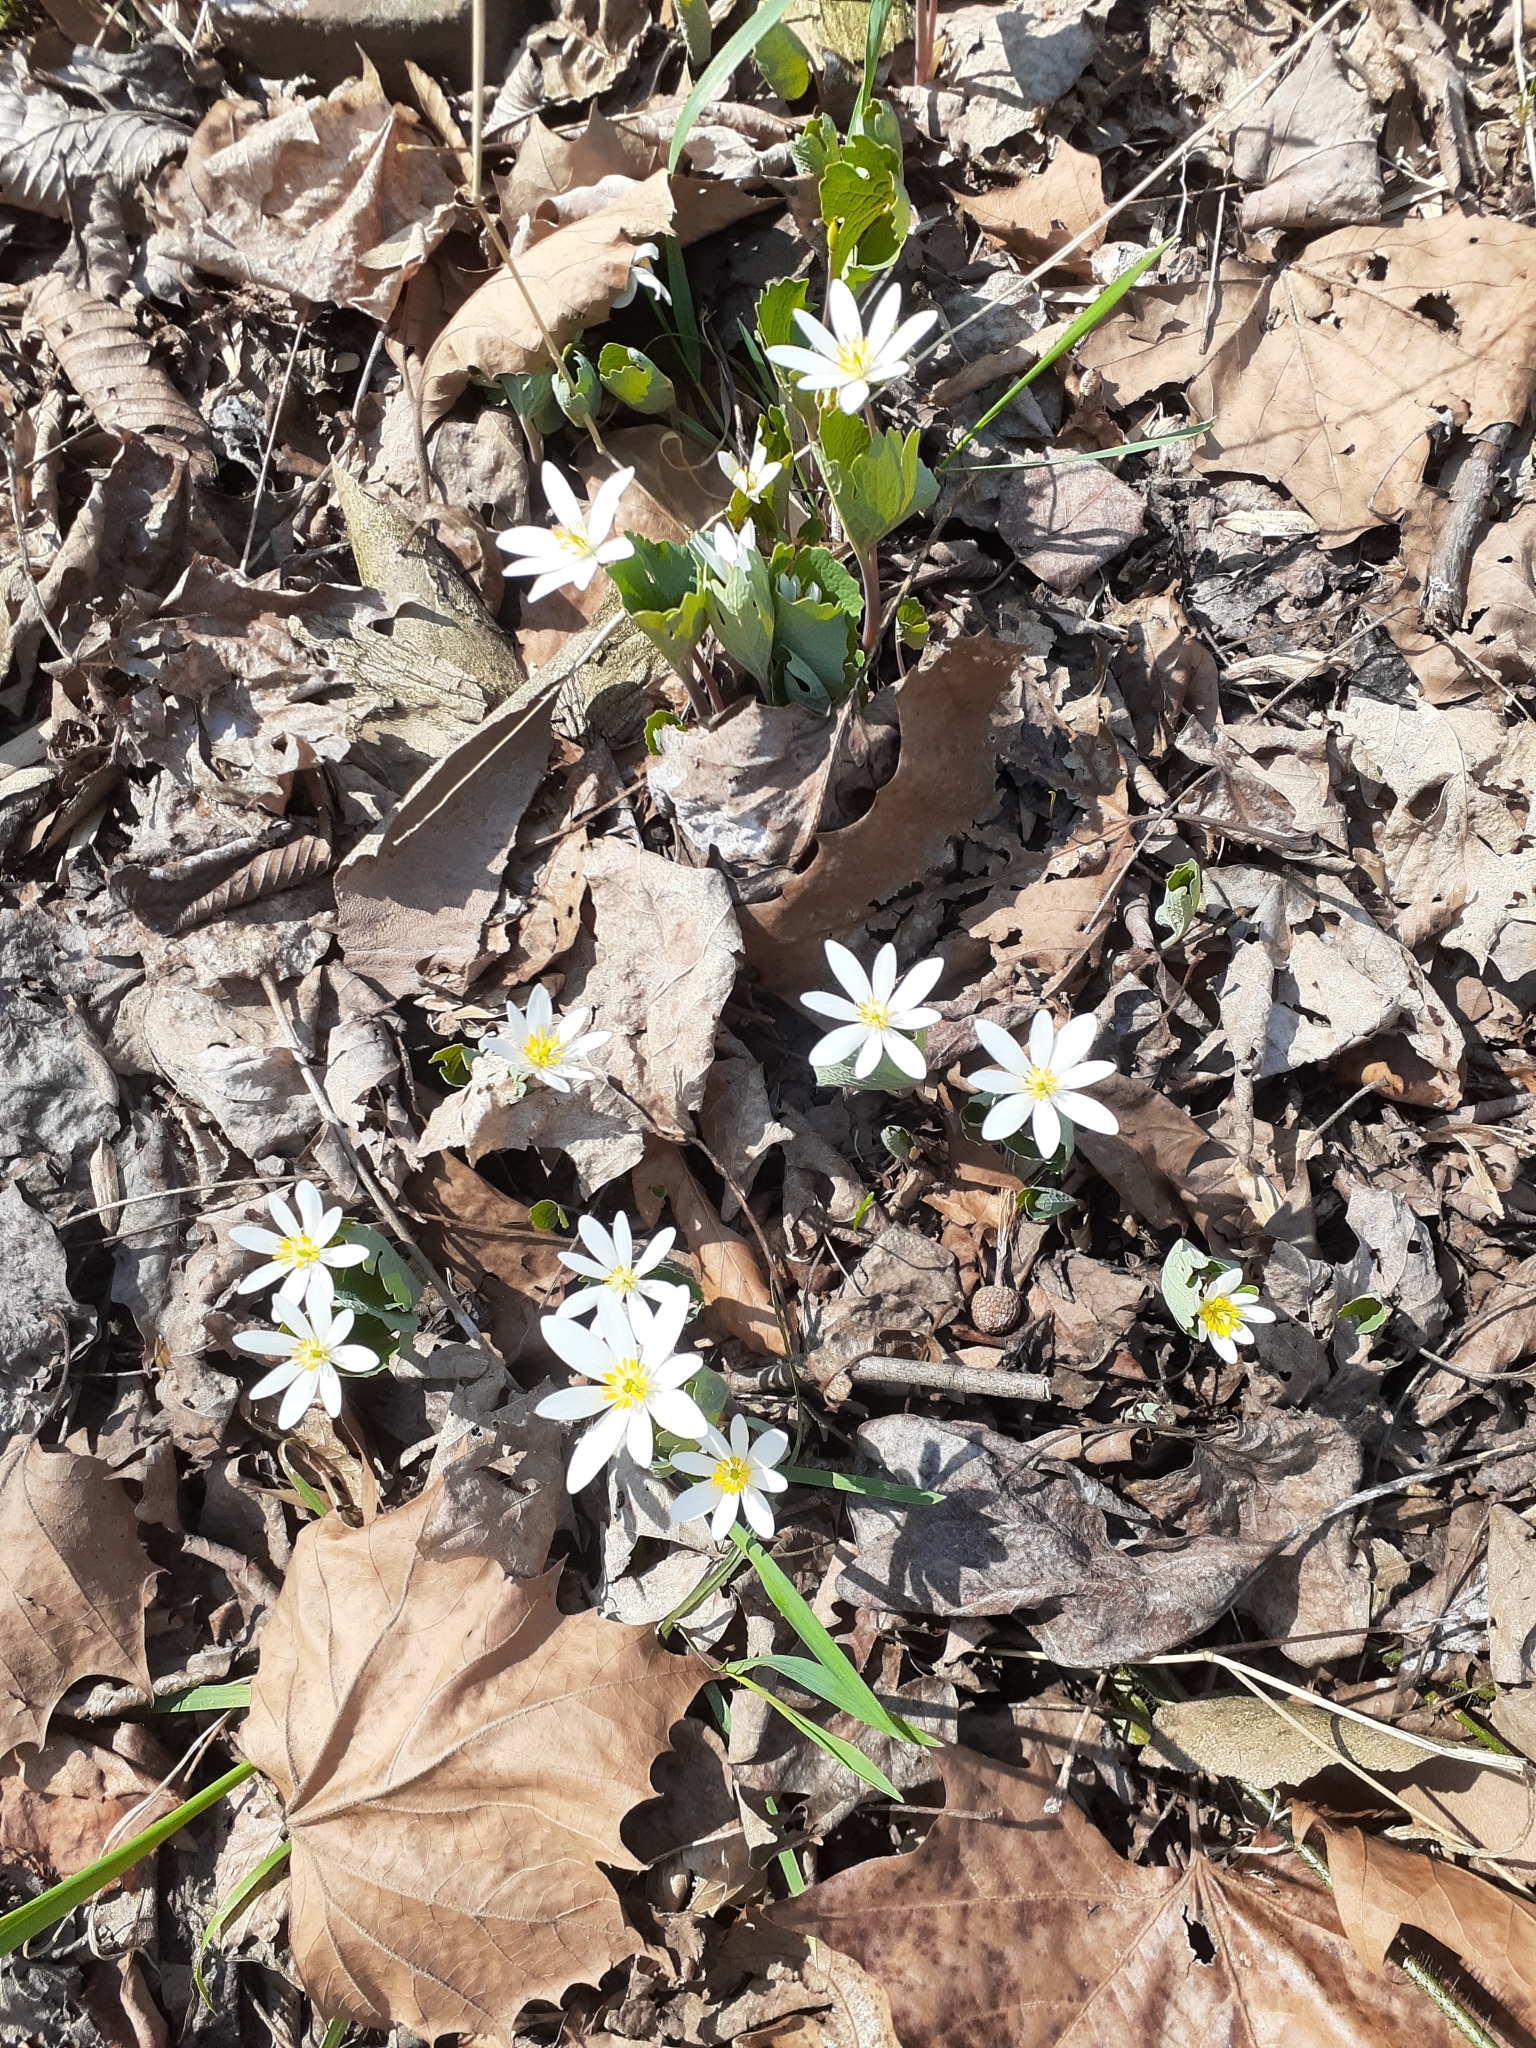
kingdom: Plantae
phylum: Tracheophyta
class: Magnoliopsida
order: Ranunculales
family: Papaveraceae
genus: Sanguinaria
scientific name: Sanguinaria canadensis
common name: Bloodroot
